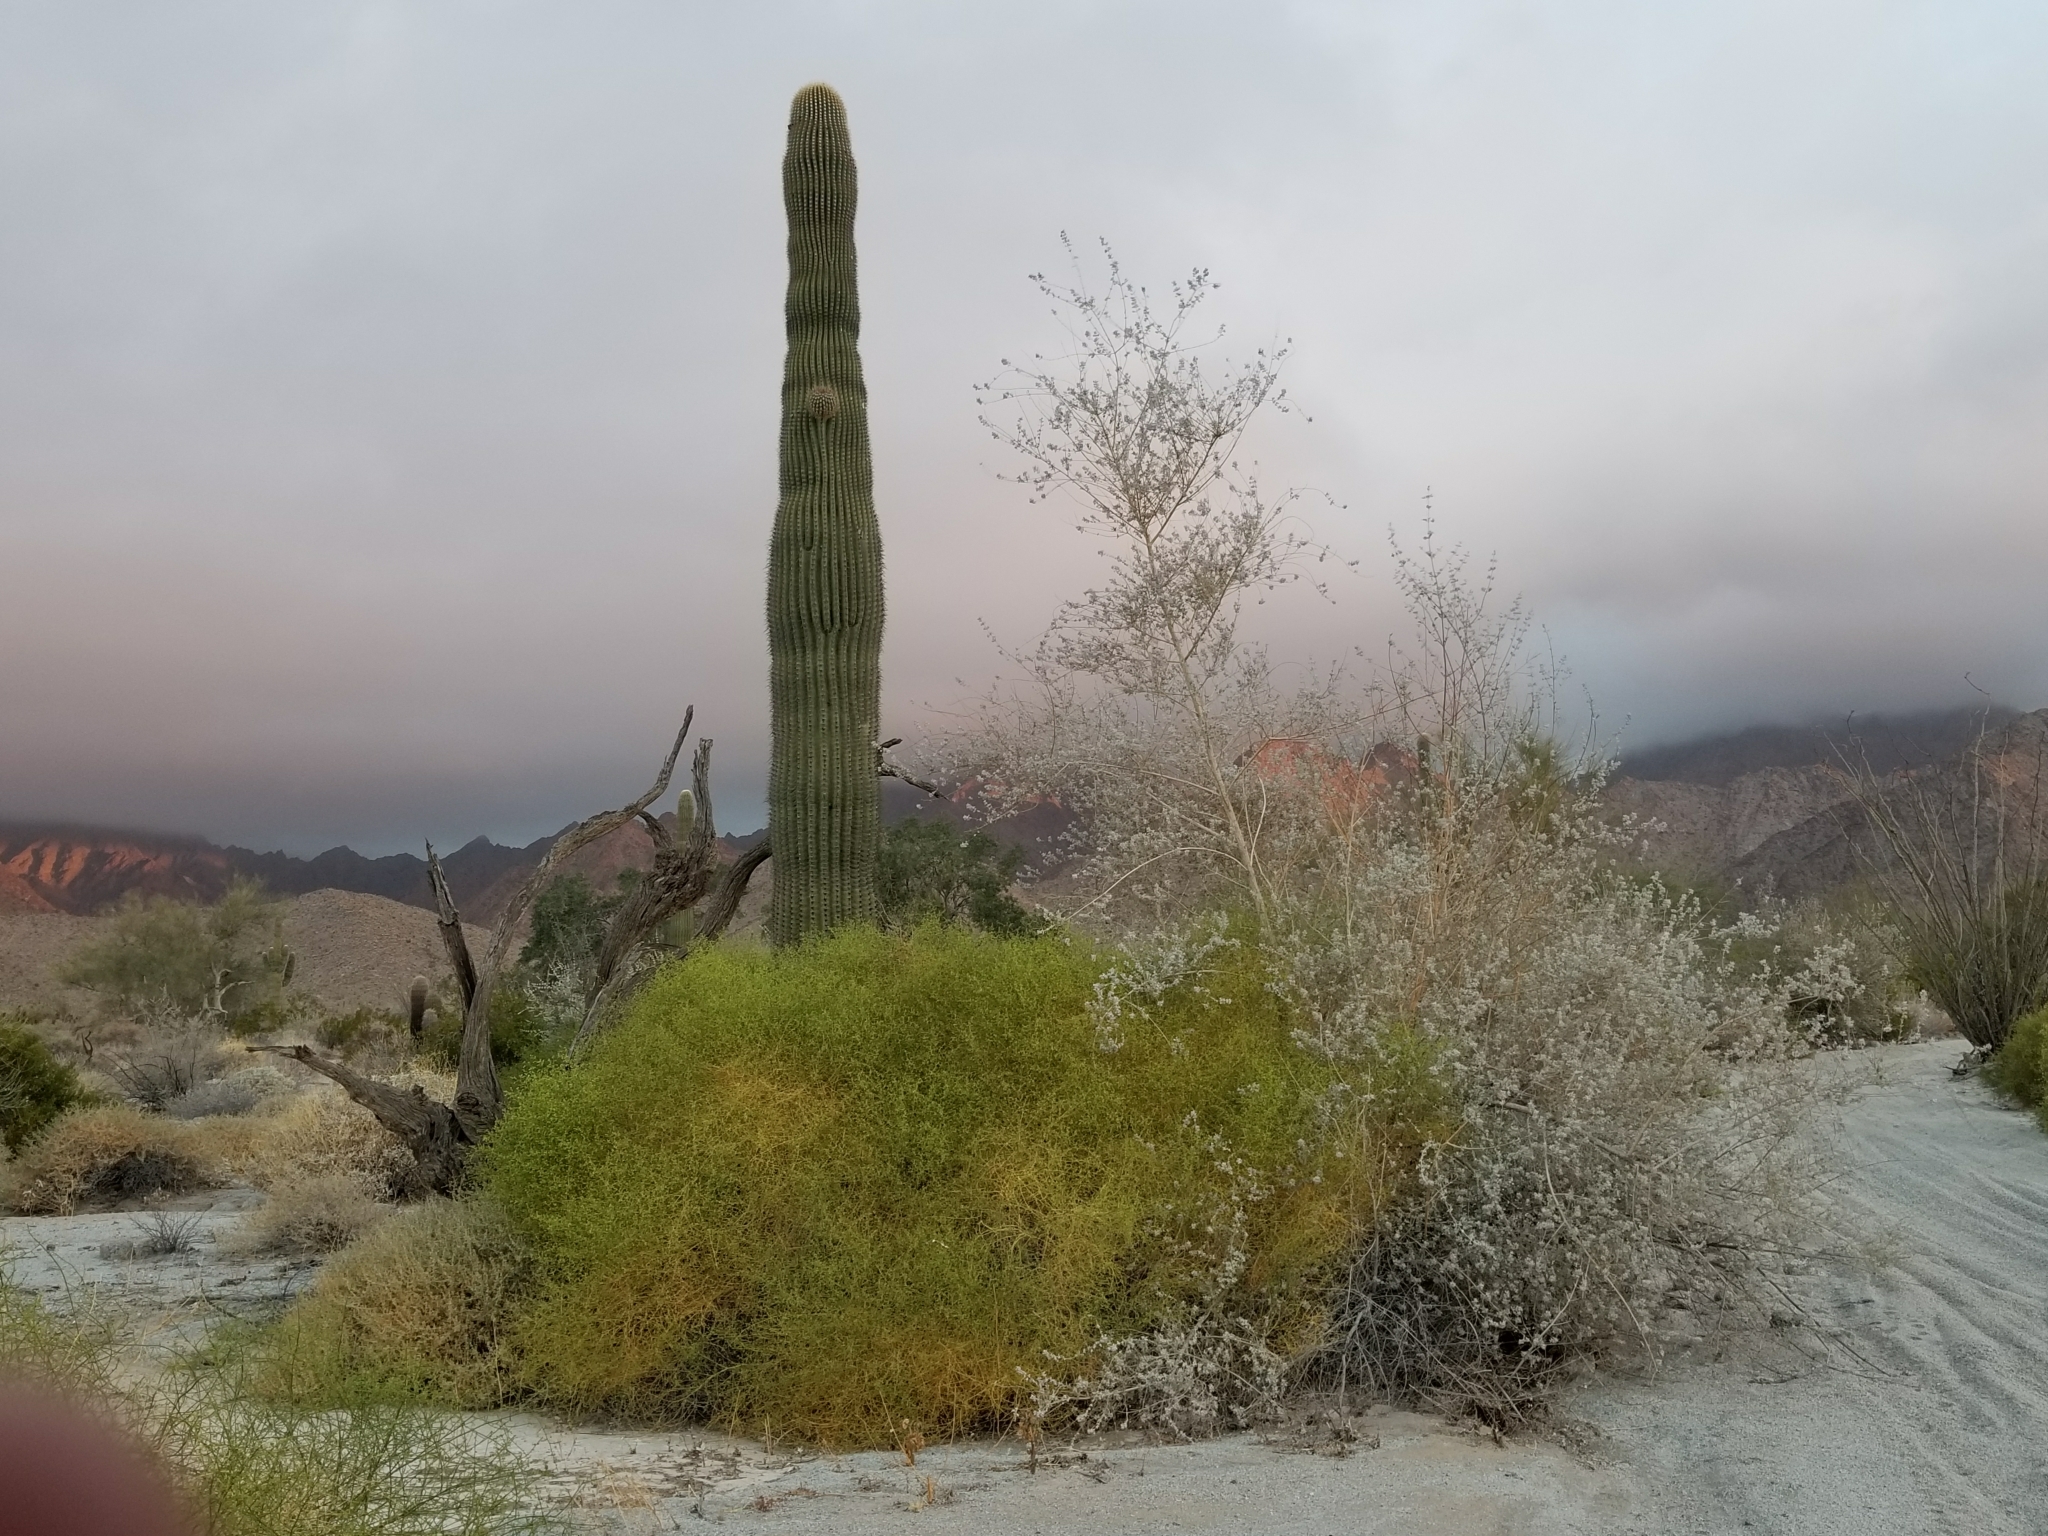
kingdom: Plantae
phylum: Tracheophyta
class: Magnoliopsida
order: Lamiales
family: Lamiaceae
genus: Condea
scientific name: Condea emoryi
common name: Chia
